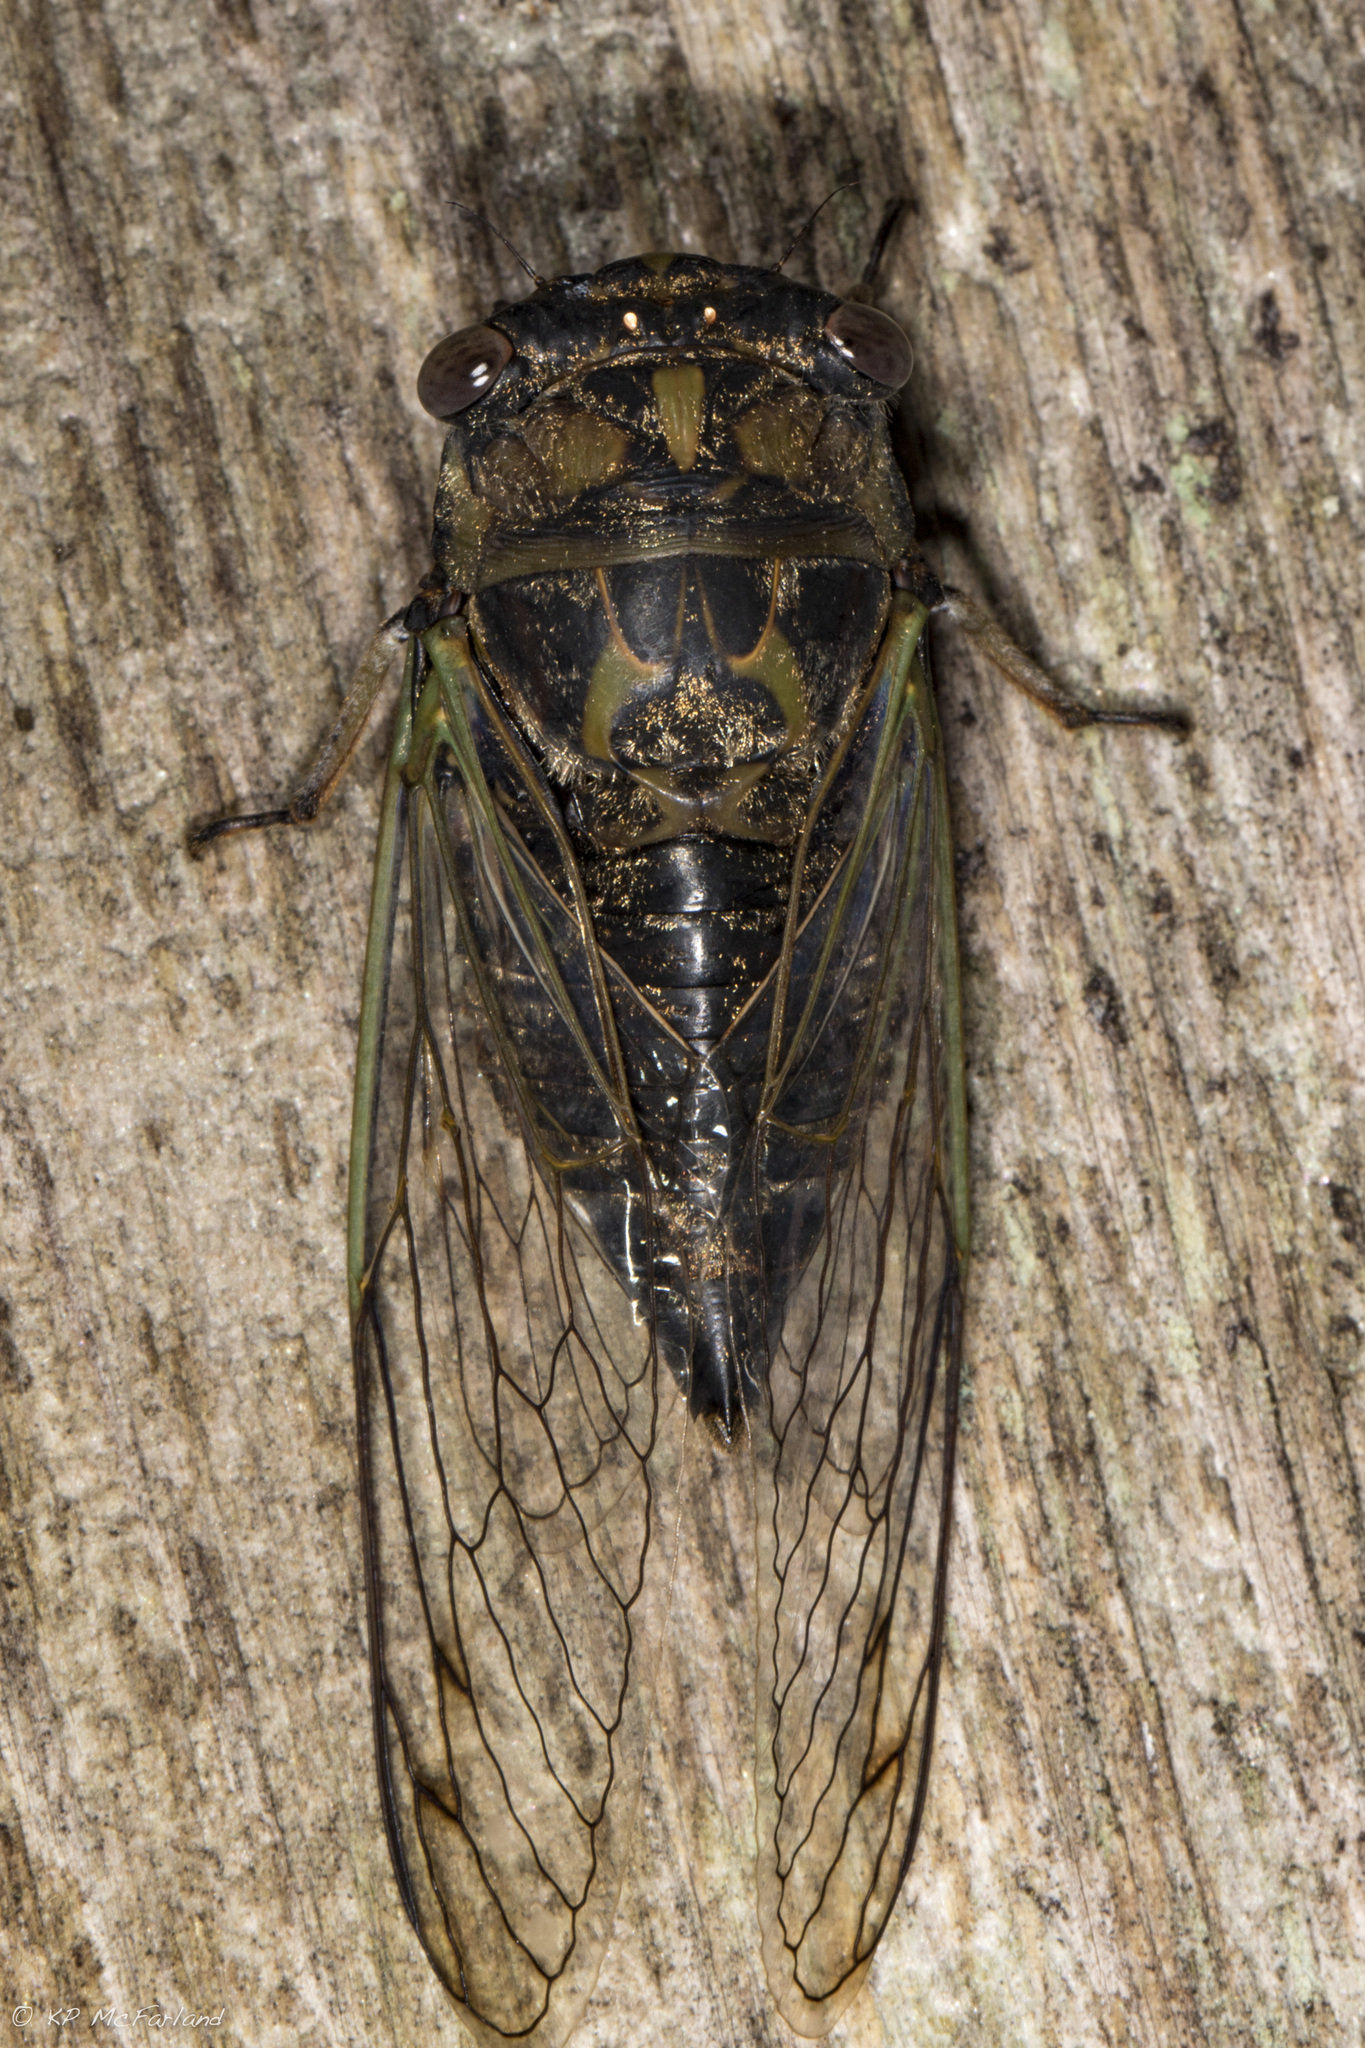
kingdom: Animalia
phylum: Arthropoda
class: Insecta
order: Hemiptera
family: Cicadidae
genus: Neotibicen
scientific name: Neotibicen canicularis
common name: God-day cicada
